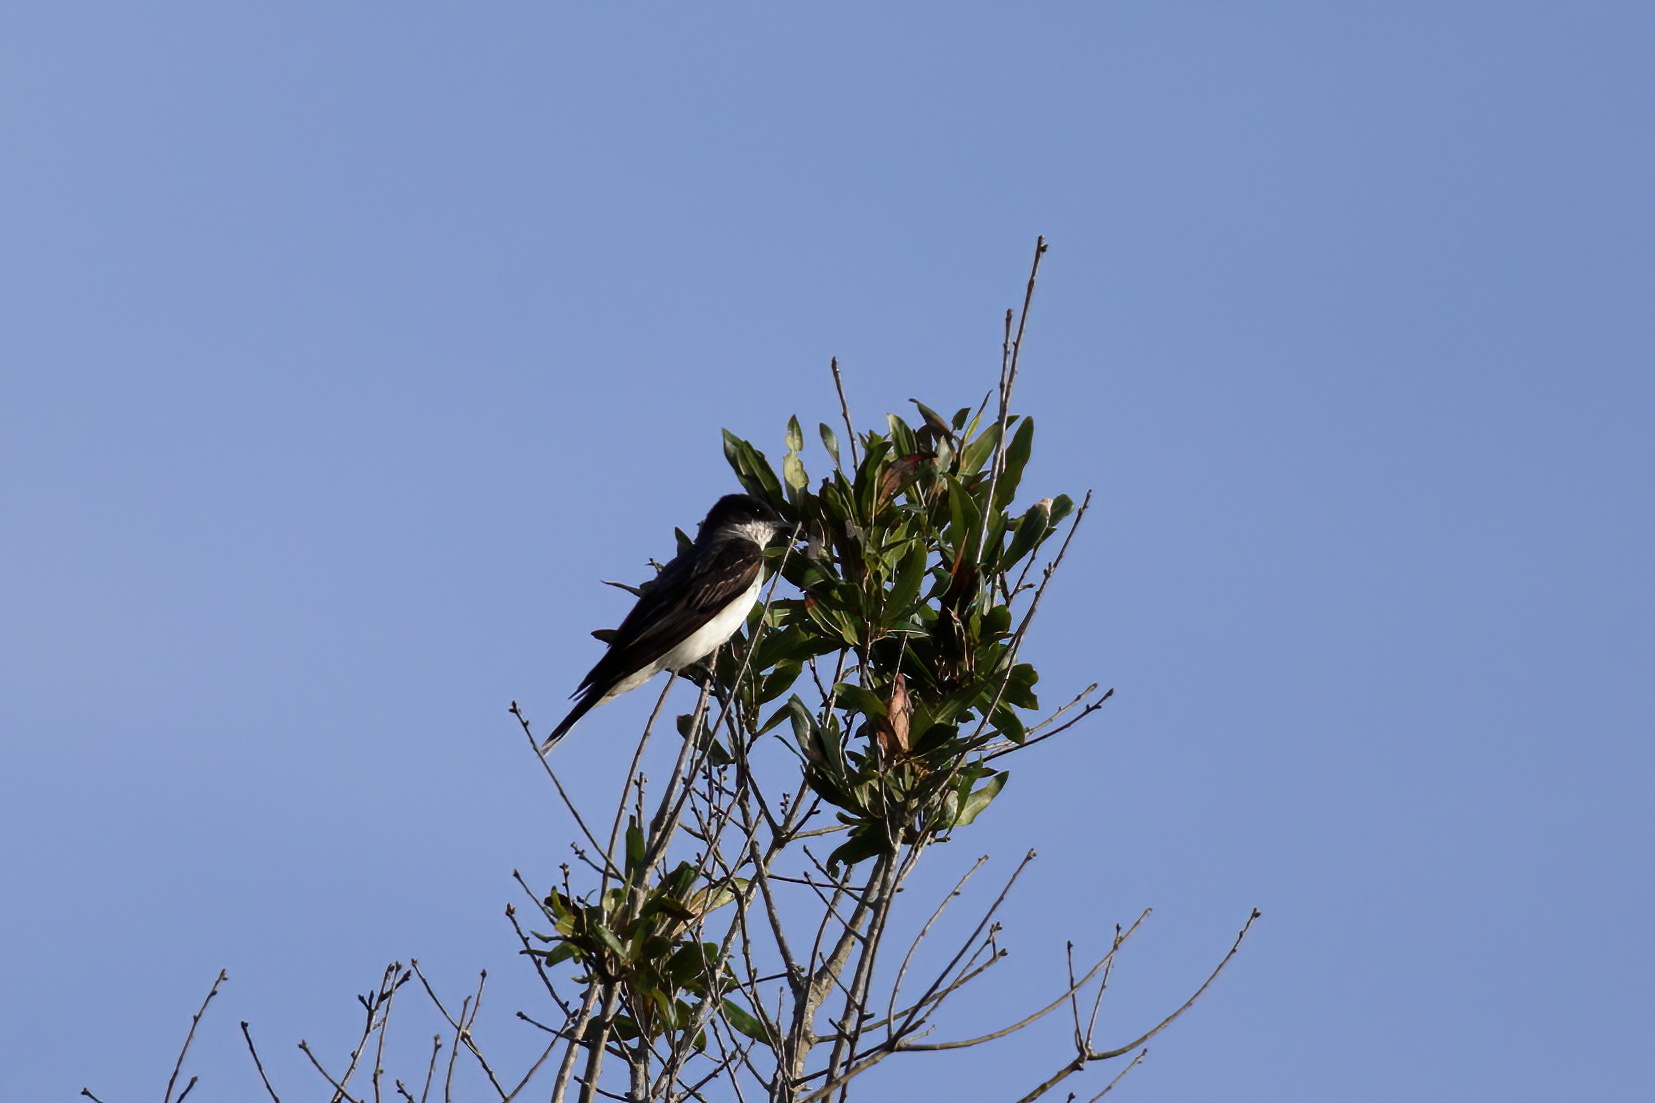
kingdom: Animalia
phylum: Chordata
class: Aves
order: Passeriformes
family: Tyrannidae
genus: Tyrannus
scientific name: Tyrannus tyrannus
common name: Eastern kingbird
